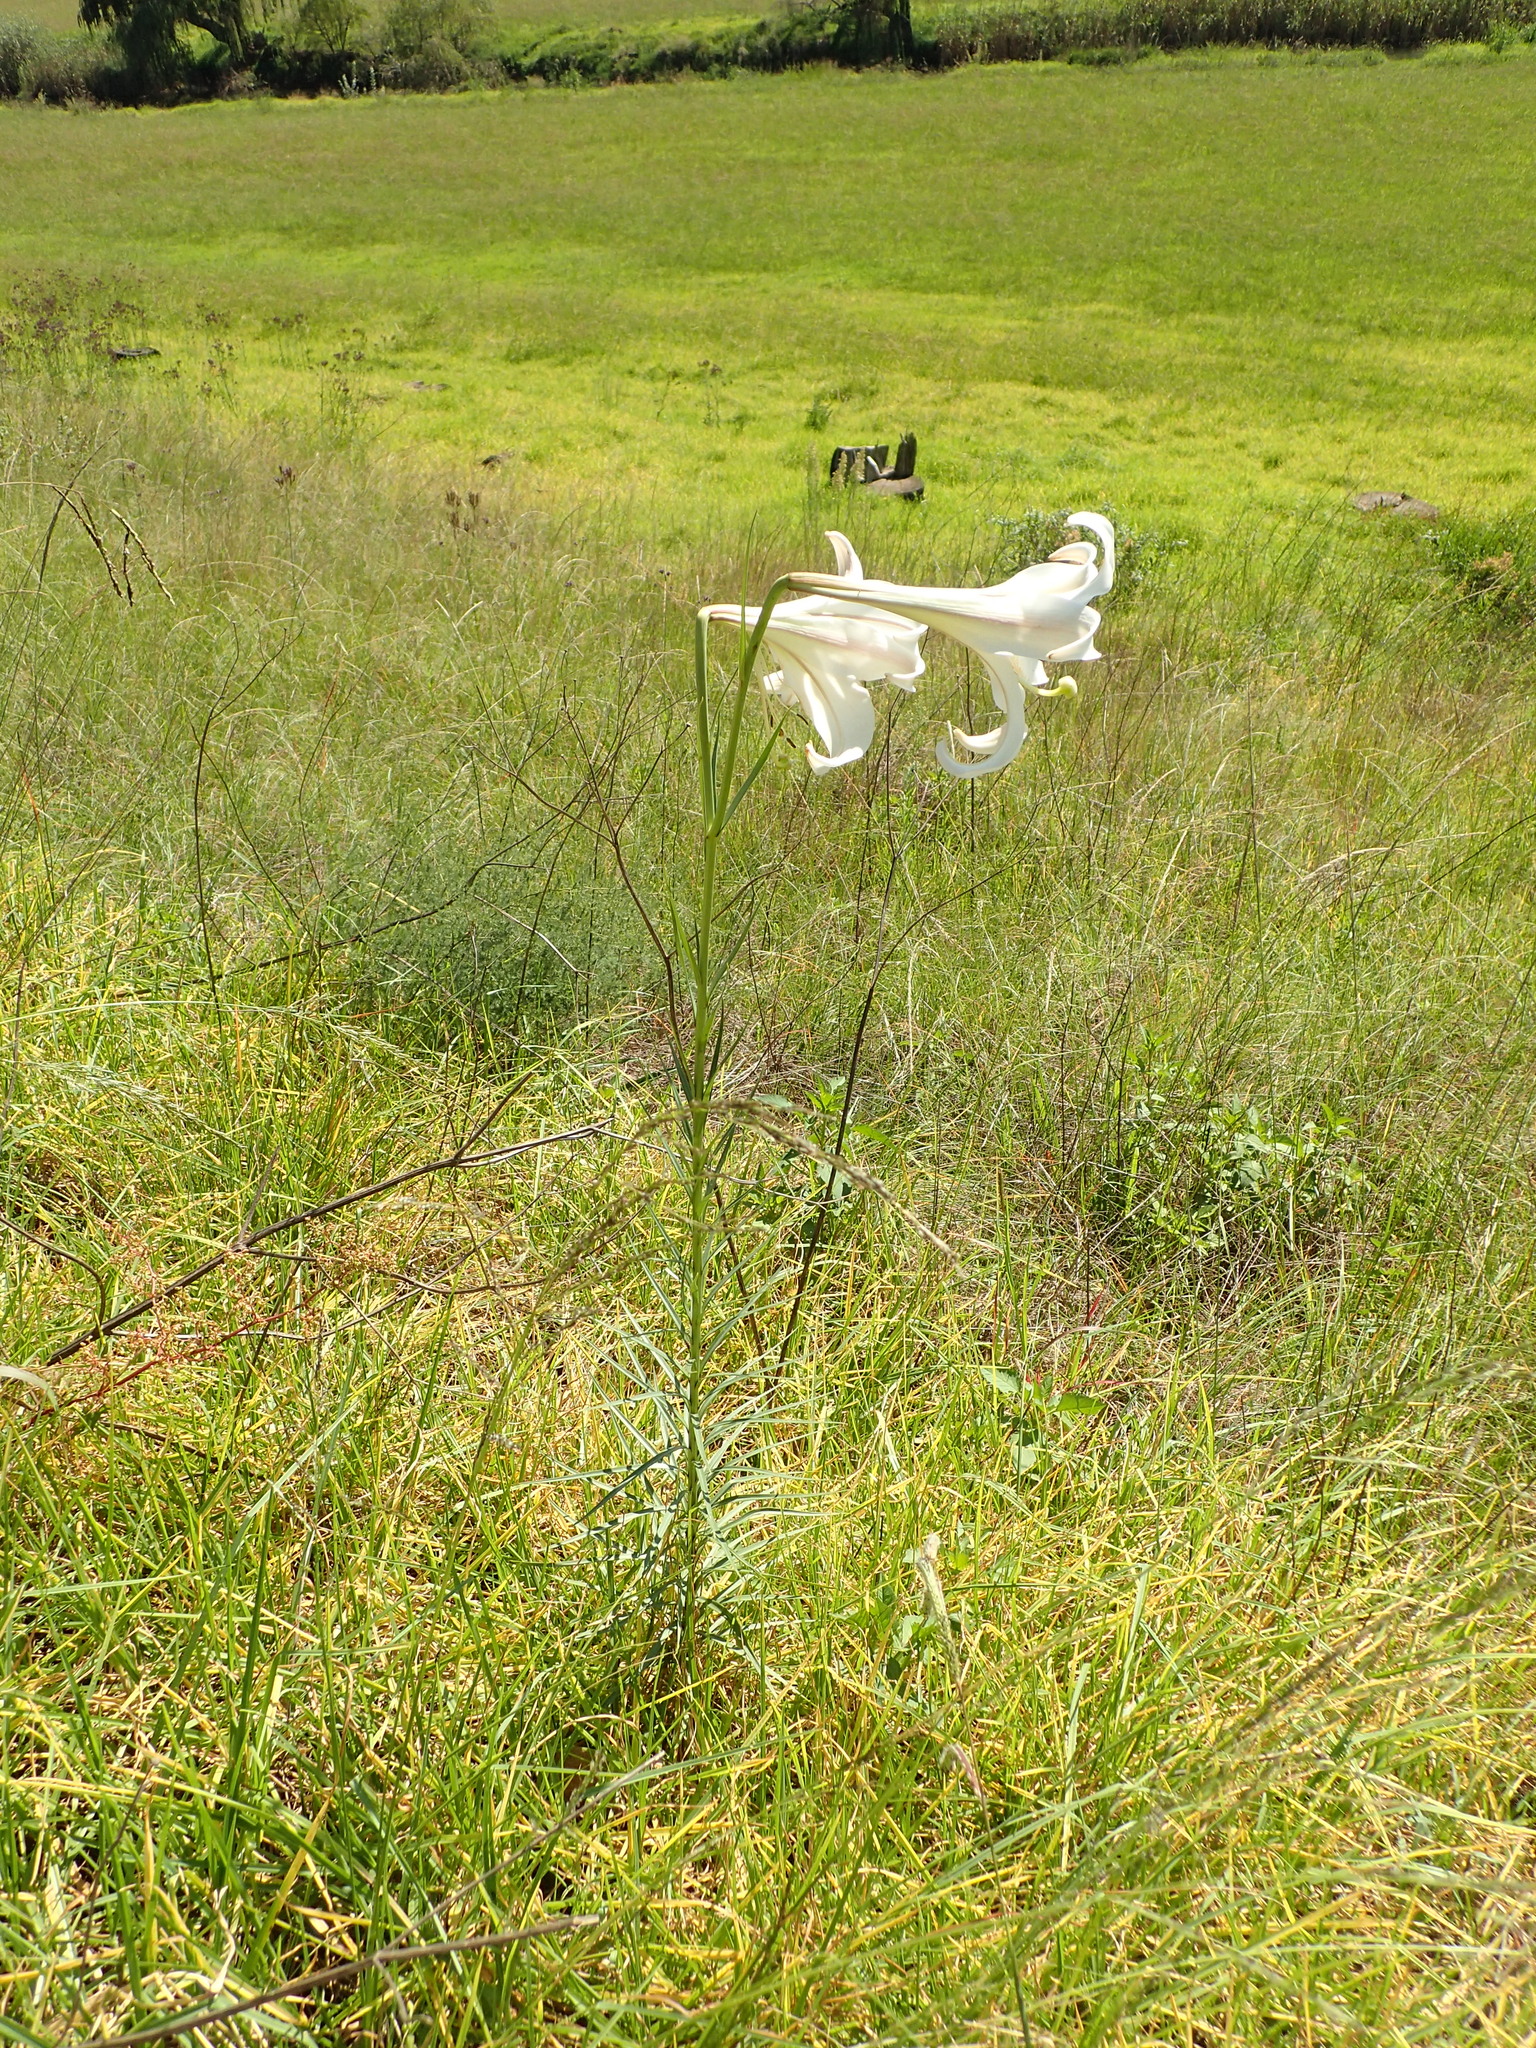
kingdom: Plantae
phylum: Tracheophyta
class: Liliopsida
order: Liliales
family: Liliaceae
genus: Lilium
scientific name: Lilium formosanum
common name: Formosa lily
